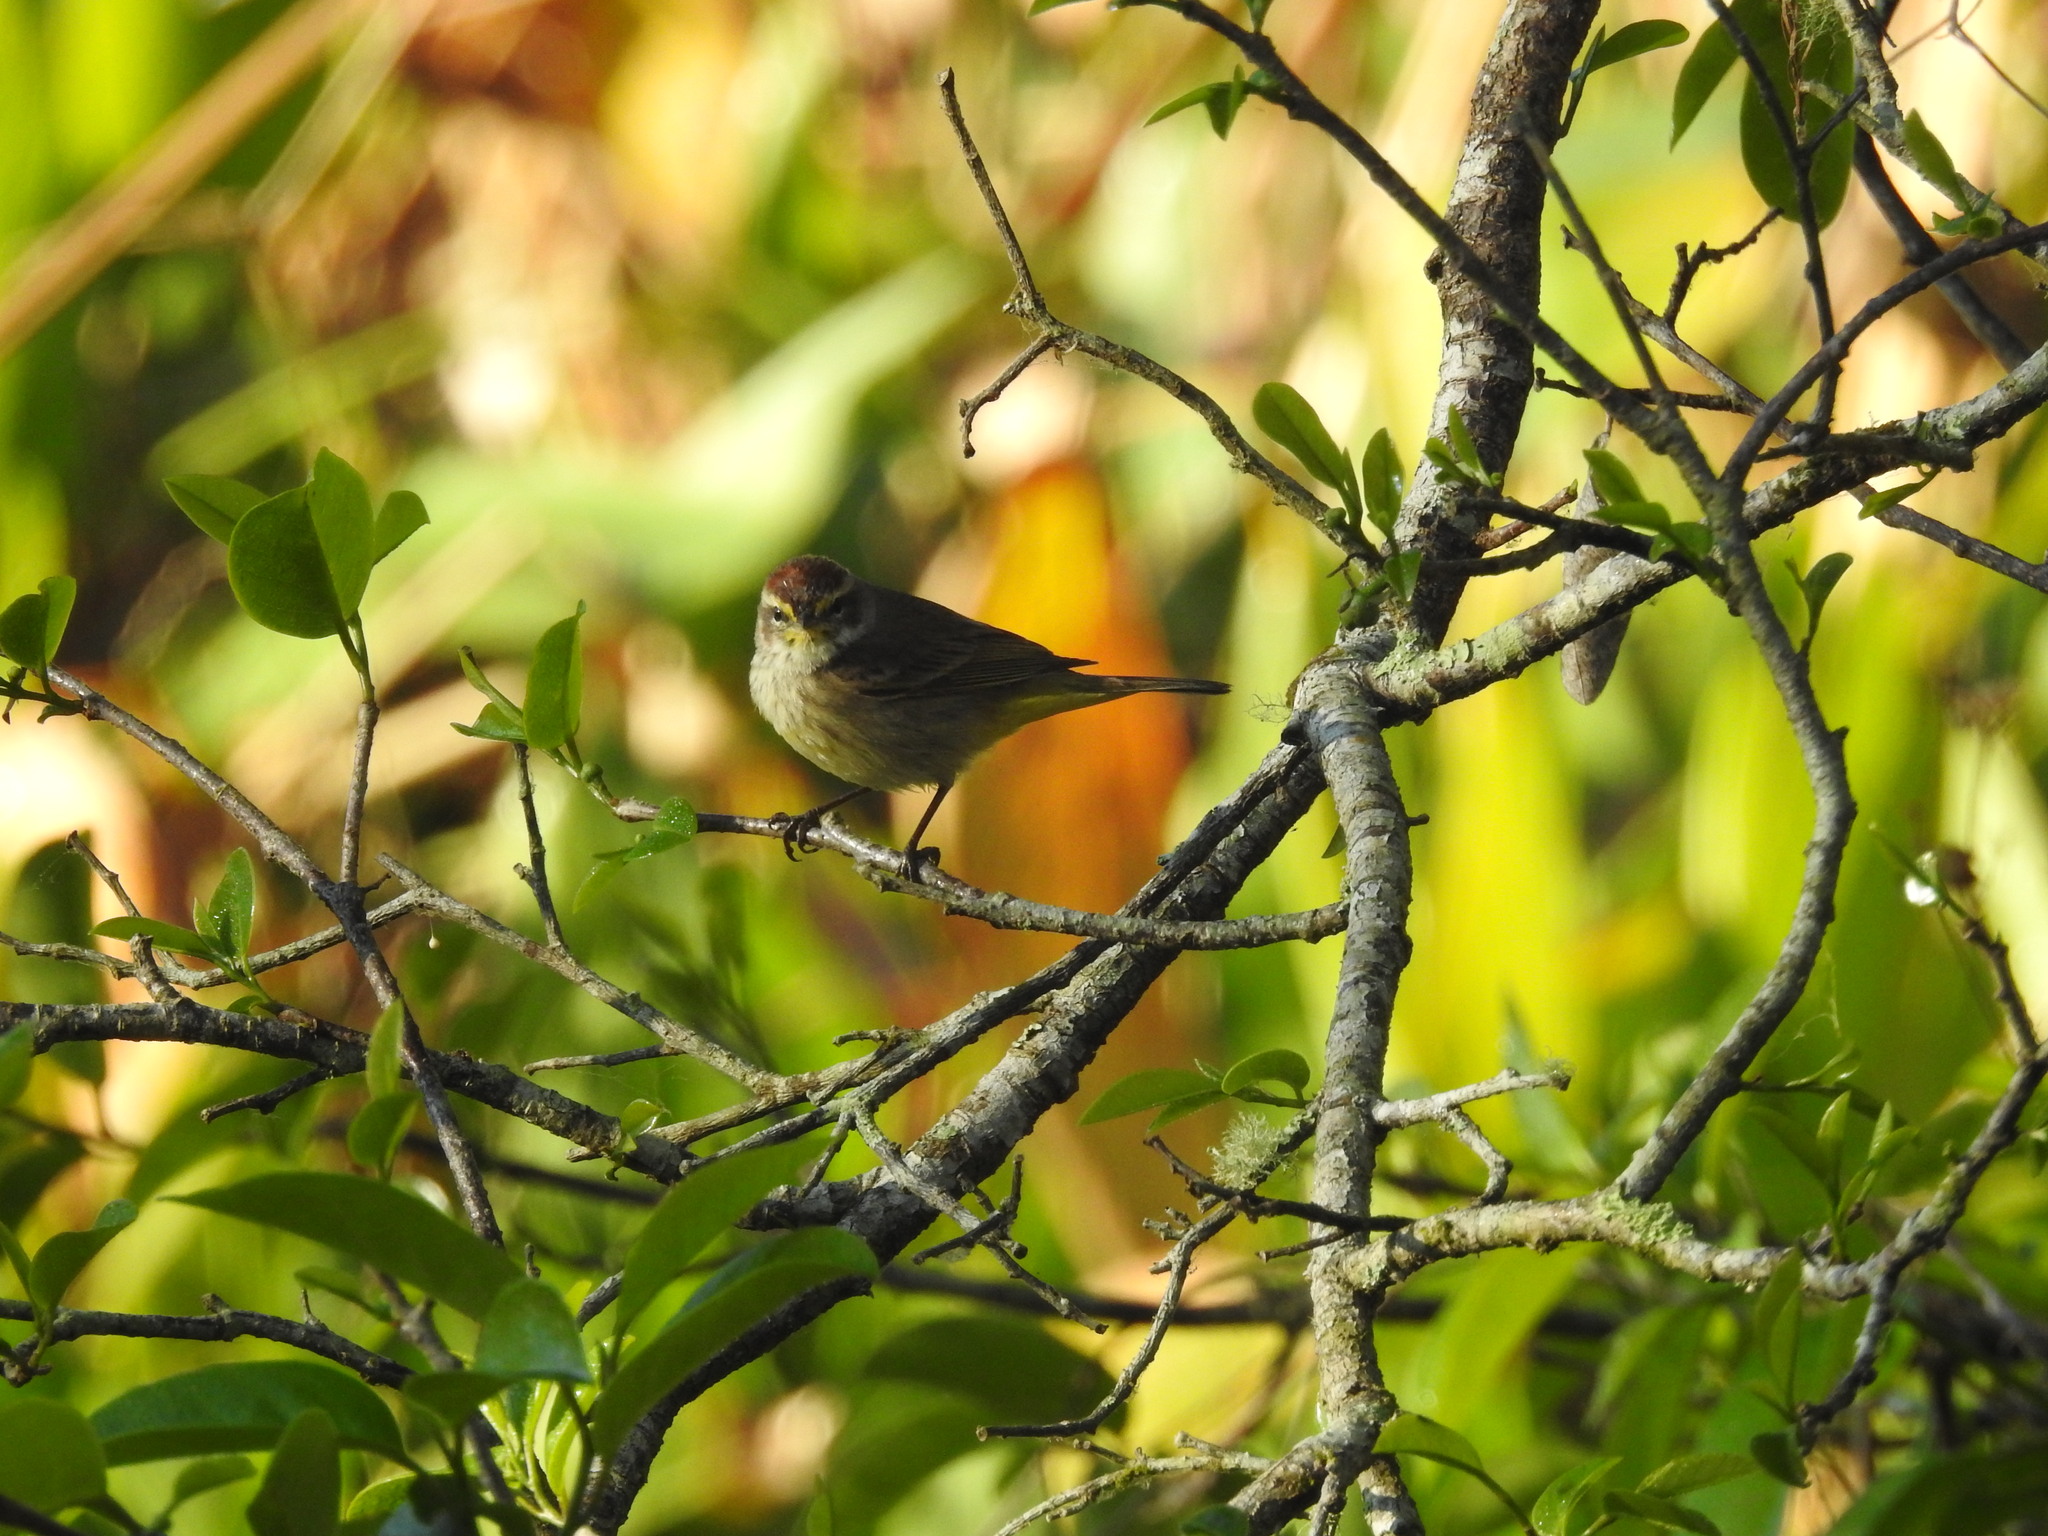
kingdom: Animalia
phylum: Chordata
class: Aves
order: Passeriformes
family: Parulidae
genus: Setophaga
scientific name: Setophaga palmarum
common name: Palm warbler
